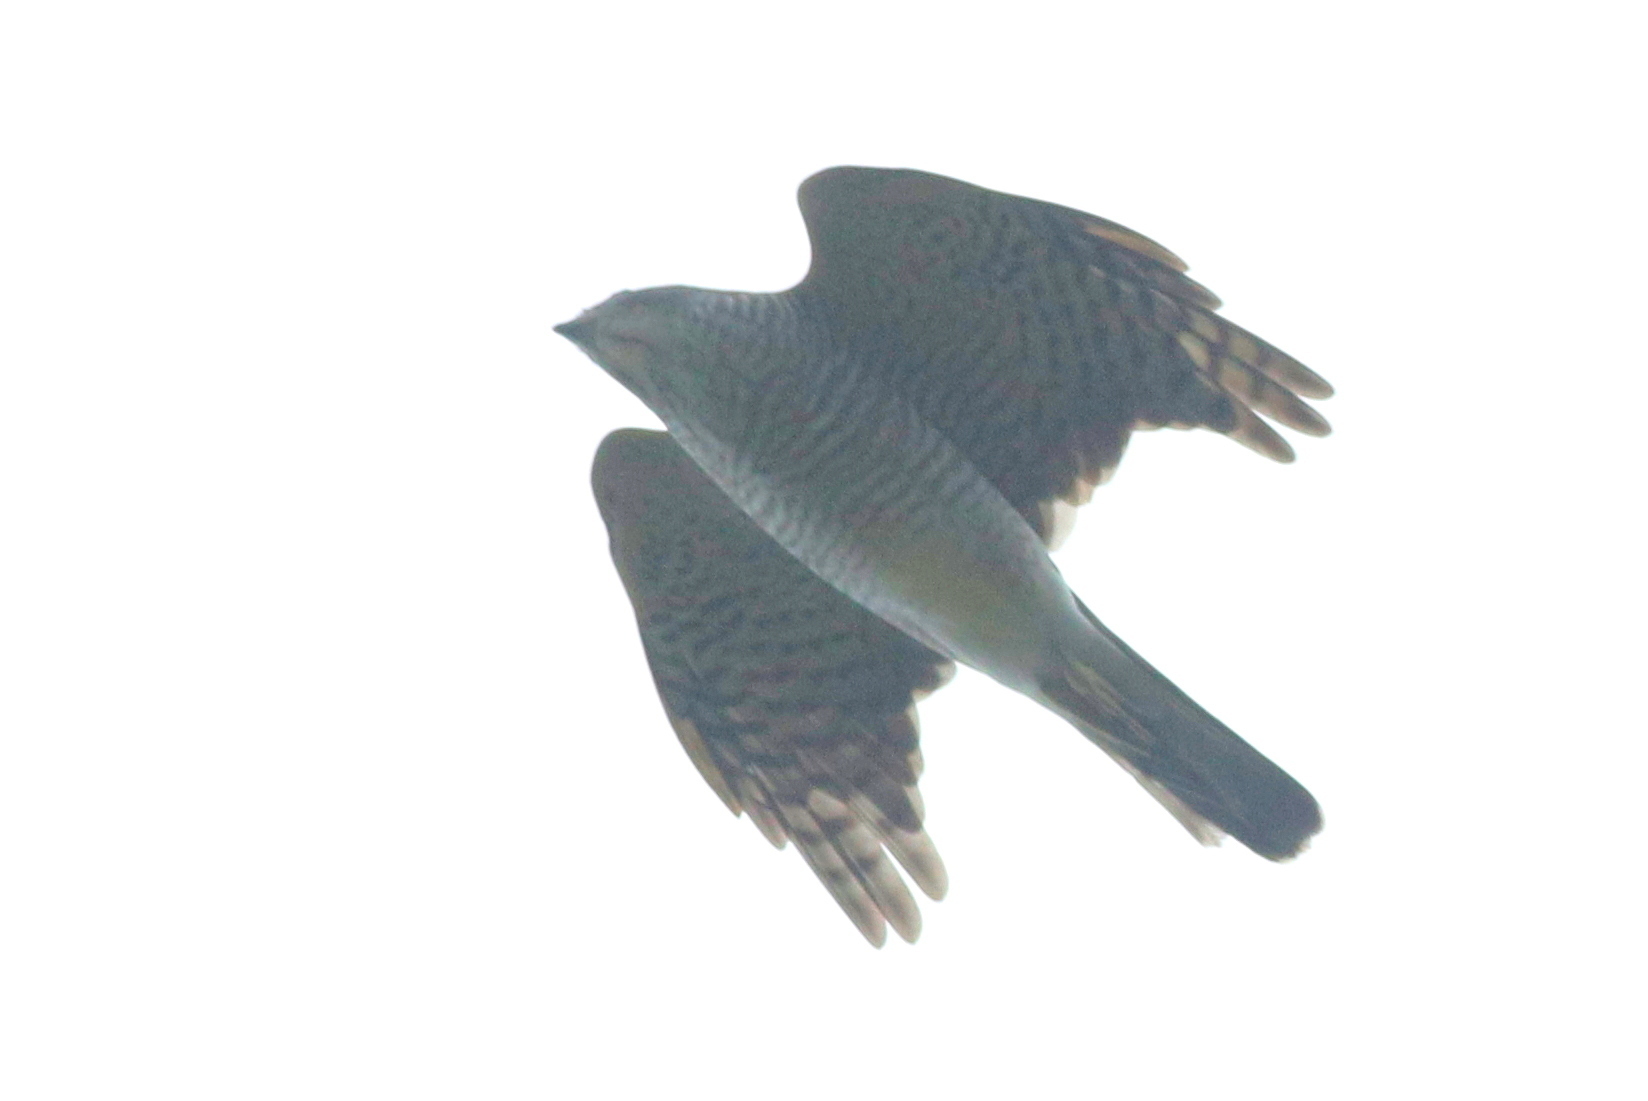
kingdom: Animalia
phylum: Chordata
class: Aves
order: Accipitriformes
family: Accipitridae
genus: Accipiter
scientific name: Accipiter gularis
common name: Japanese sparrowhawk
